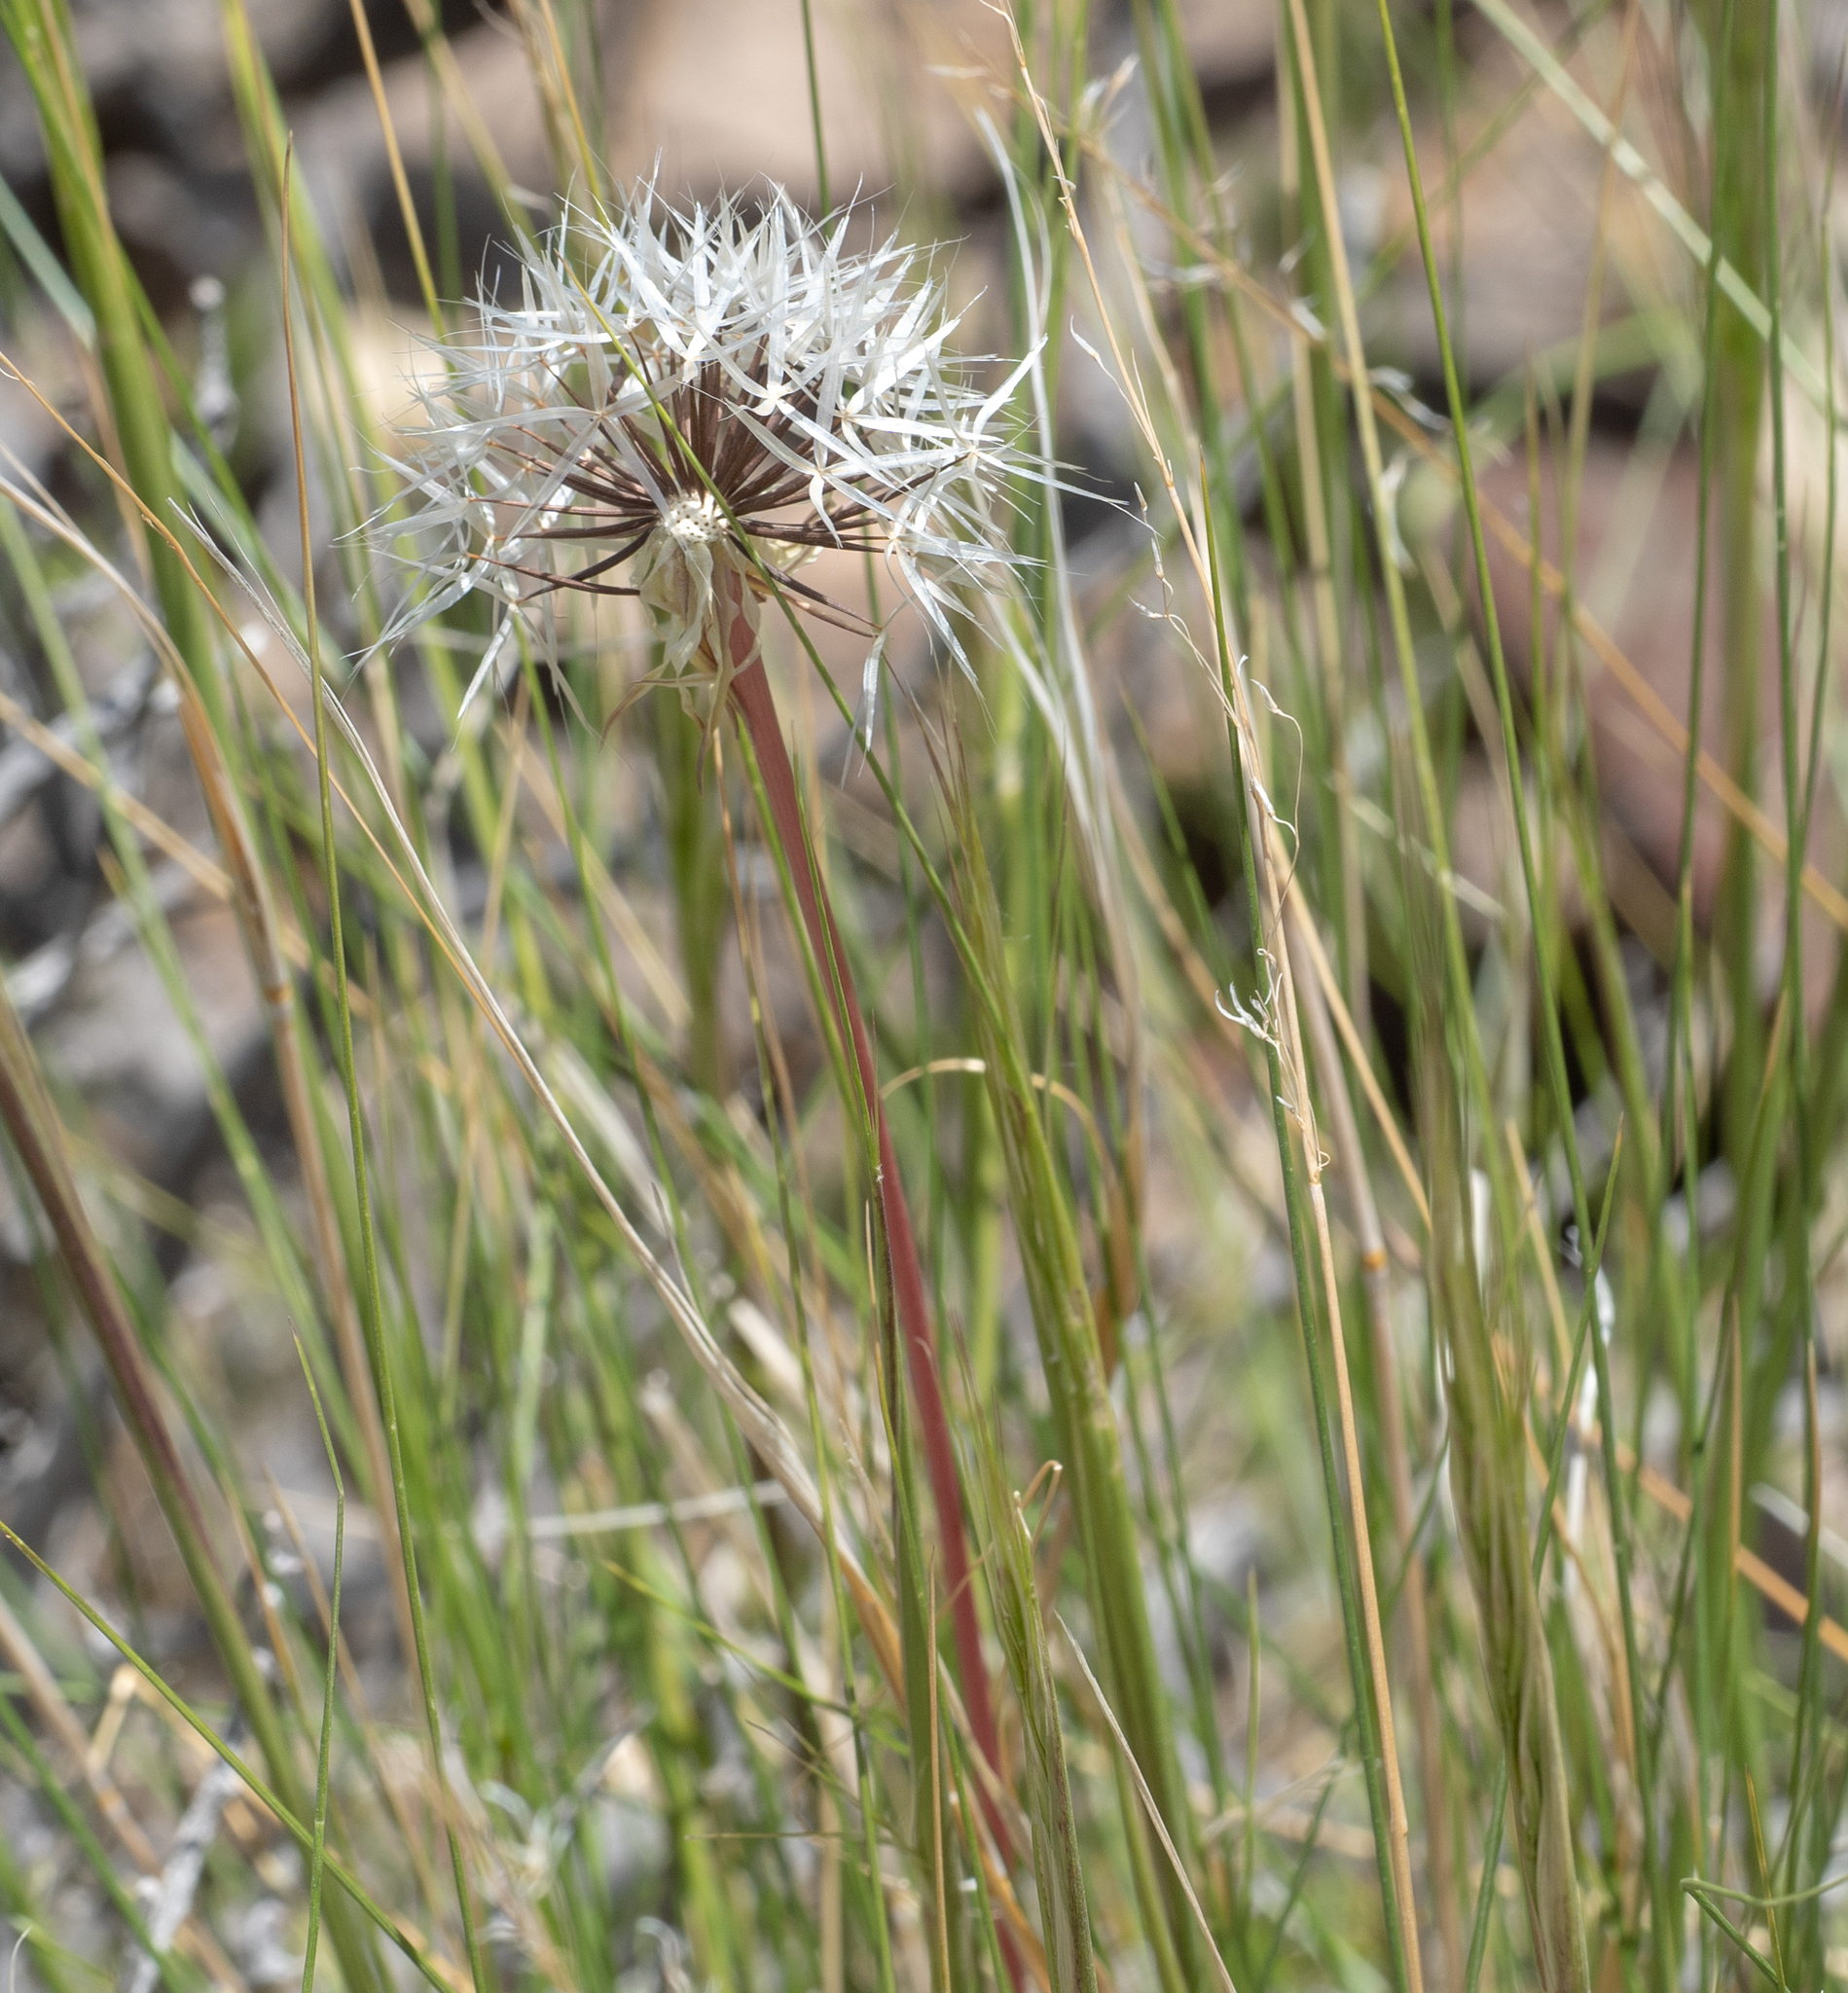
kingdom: Plantae
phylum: Tracheophyta
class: Magnoliopsida
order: Asterales
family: Asteraceae
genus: Microseris
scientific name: Microseris lindleyi
